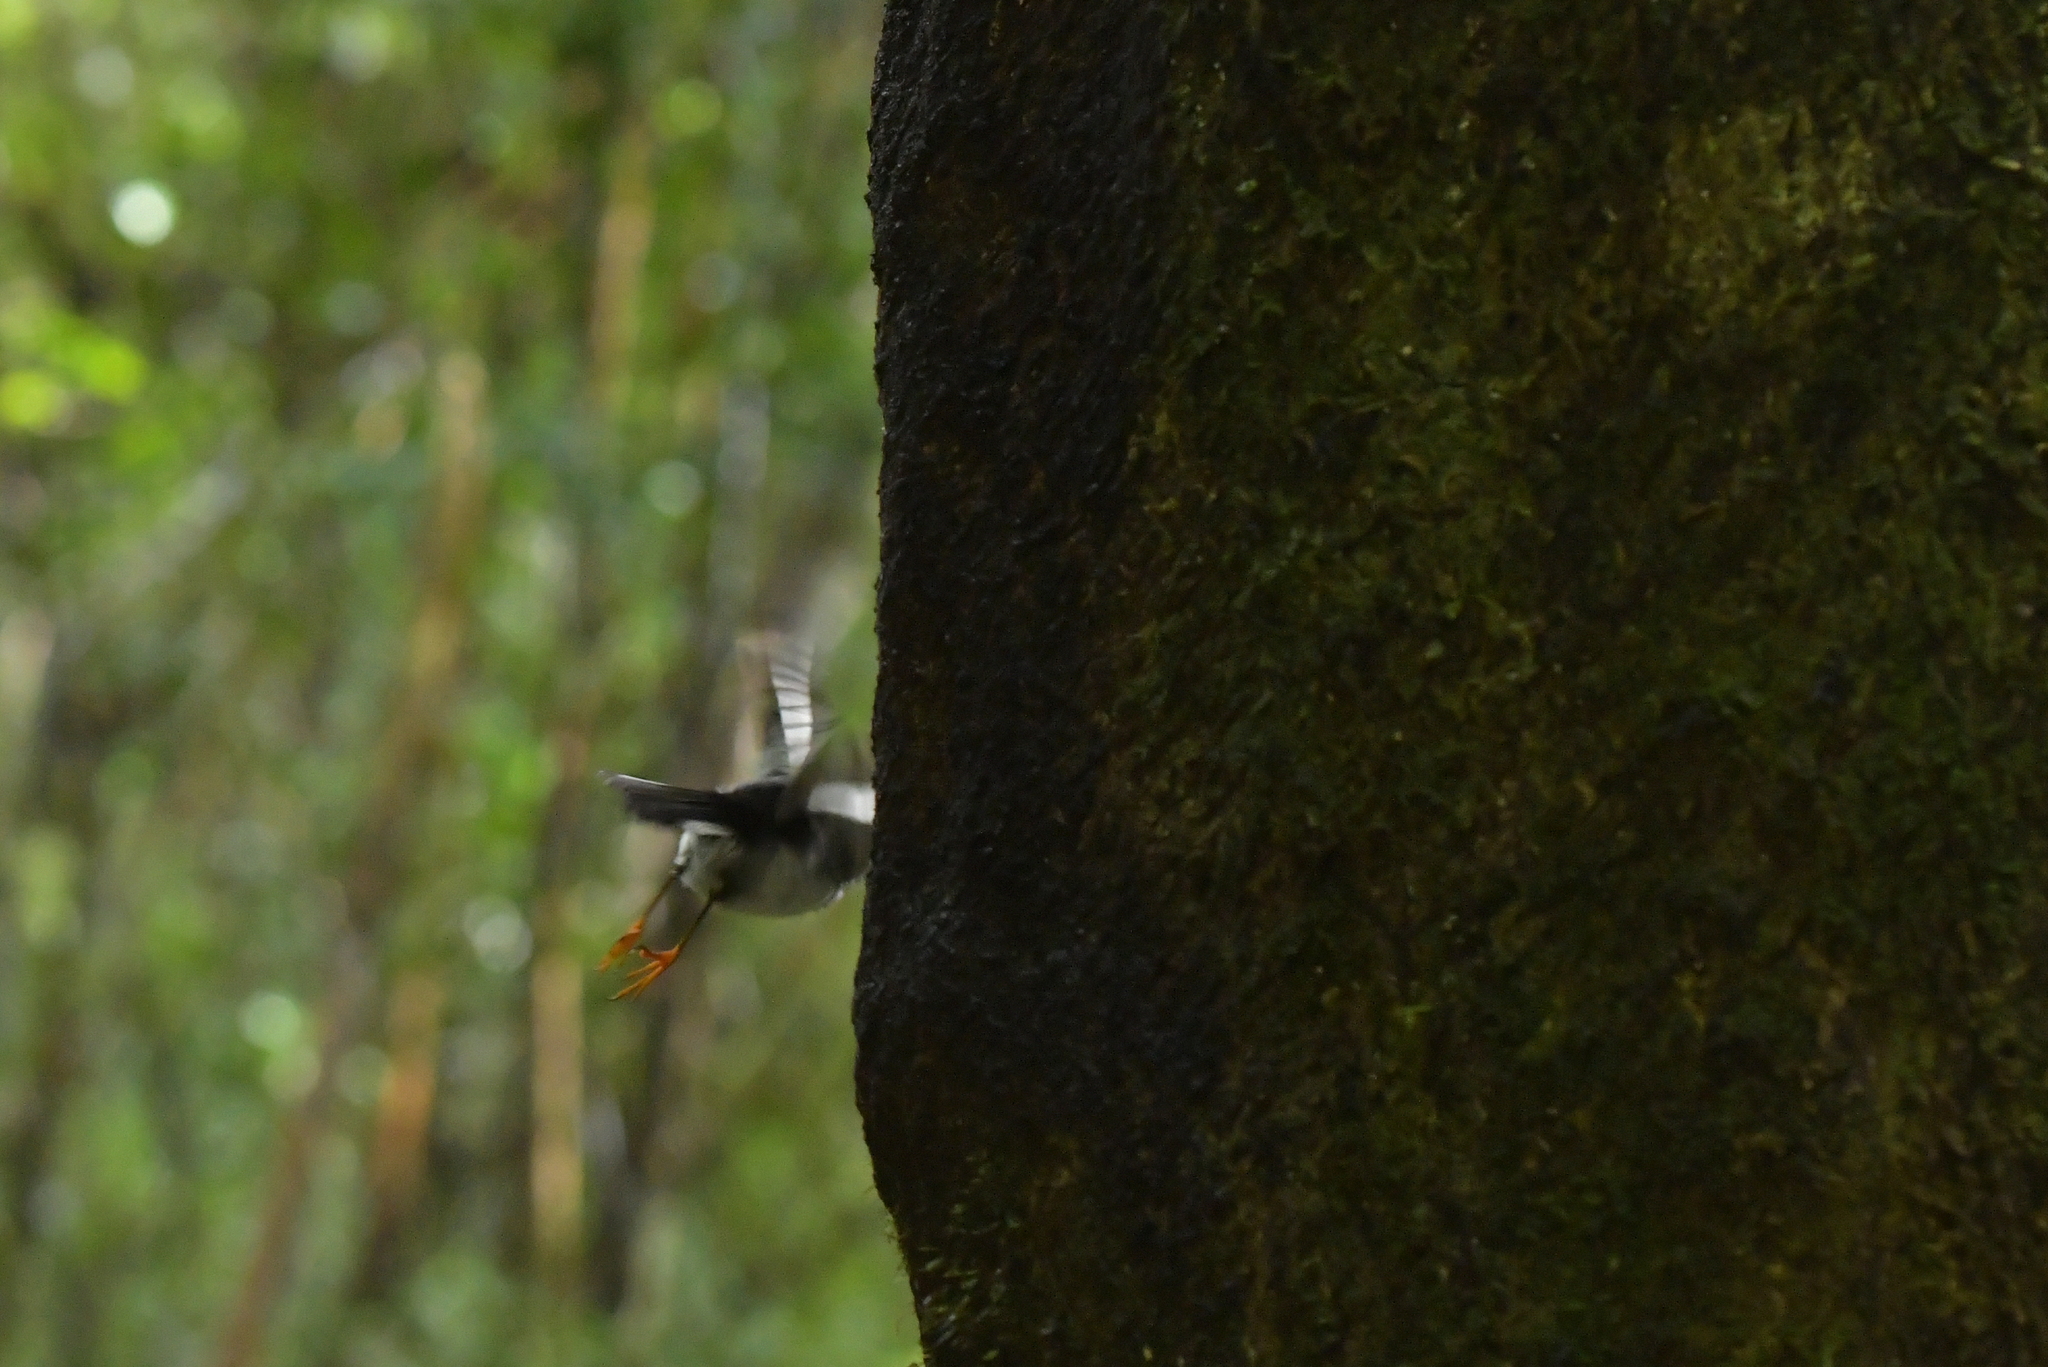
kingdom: Animalia
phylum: Chordata
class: Aves
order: Passeriformes
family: Petroicidae
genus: Petroica
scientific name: Petroica macrocephala
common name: Tomtit
